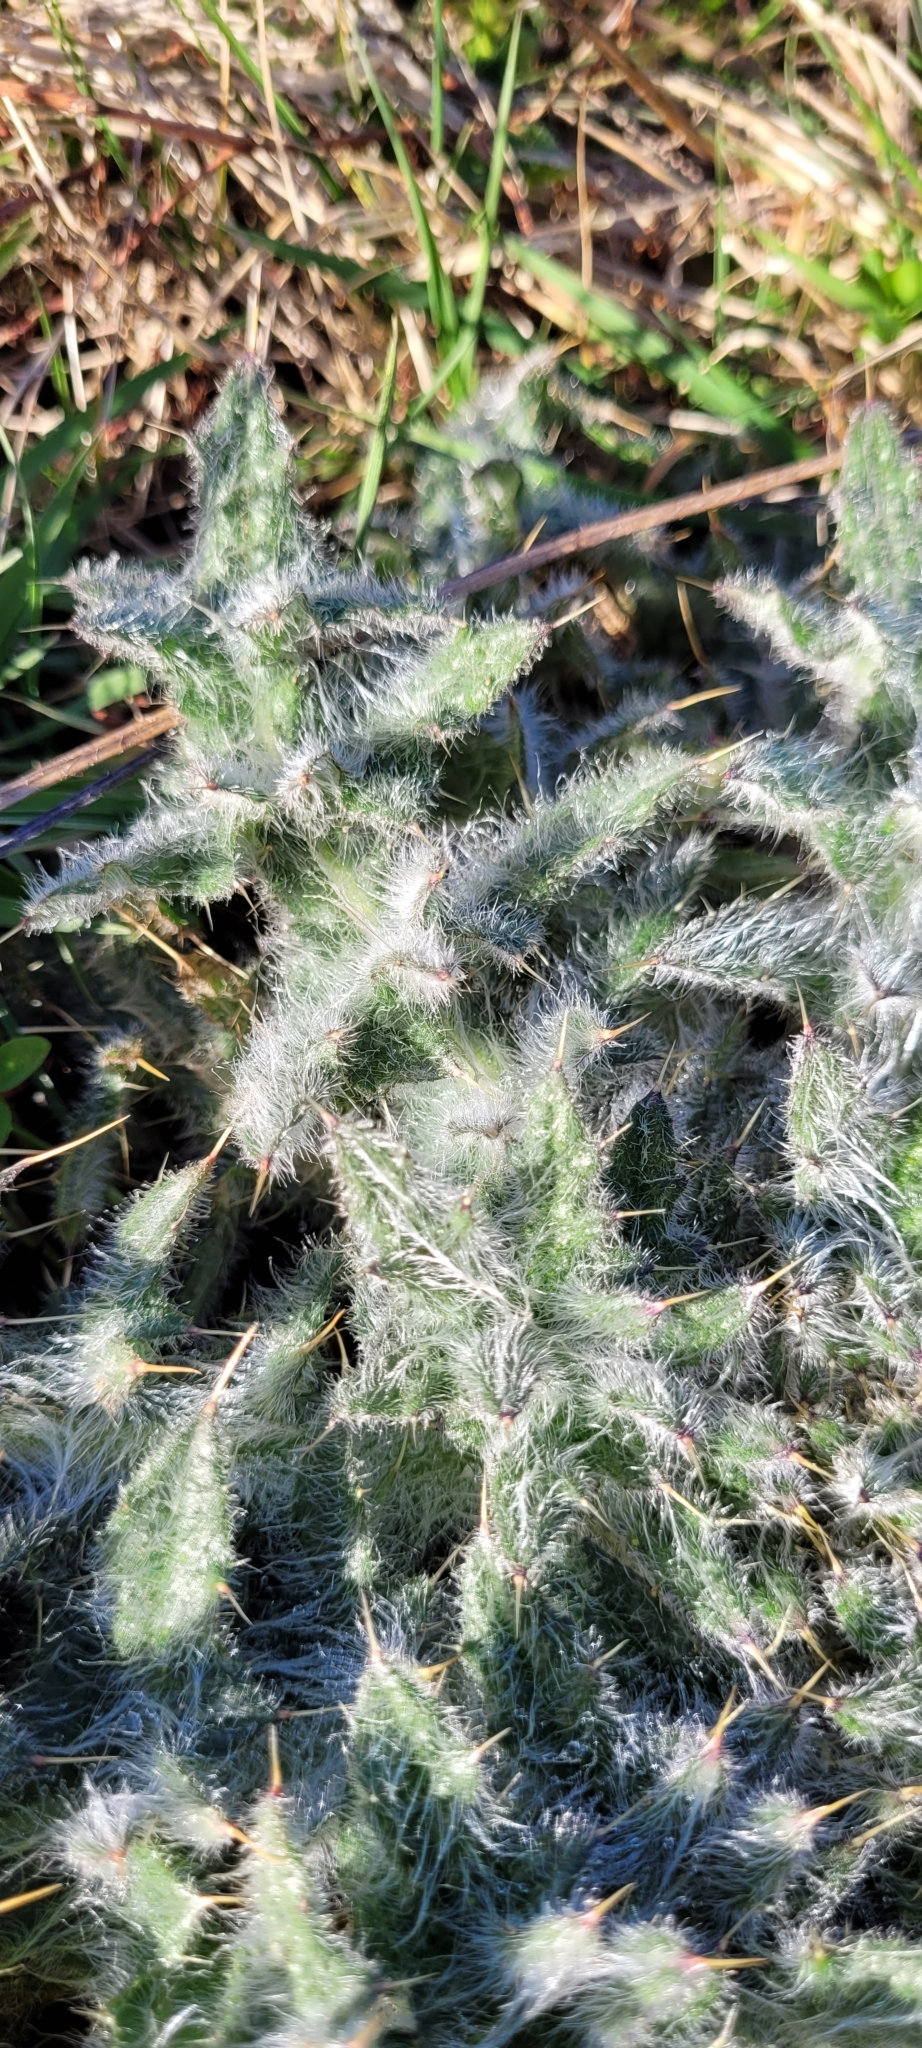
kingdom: Plantae
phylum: Tracheophyta
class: Magnoliopsida
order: Asterales
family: Asteraceae
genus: Cirsium
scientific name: Cirsium vulgare
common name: Bull thistle
